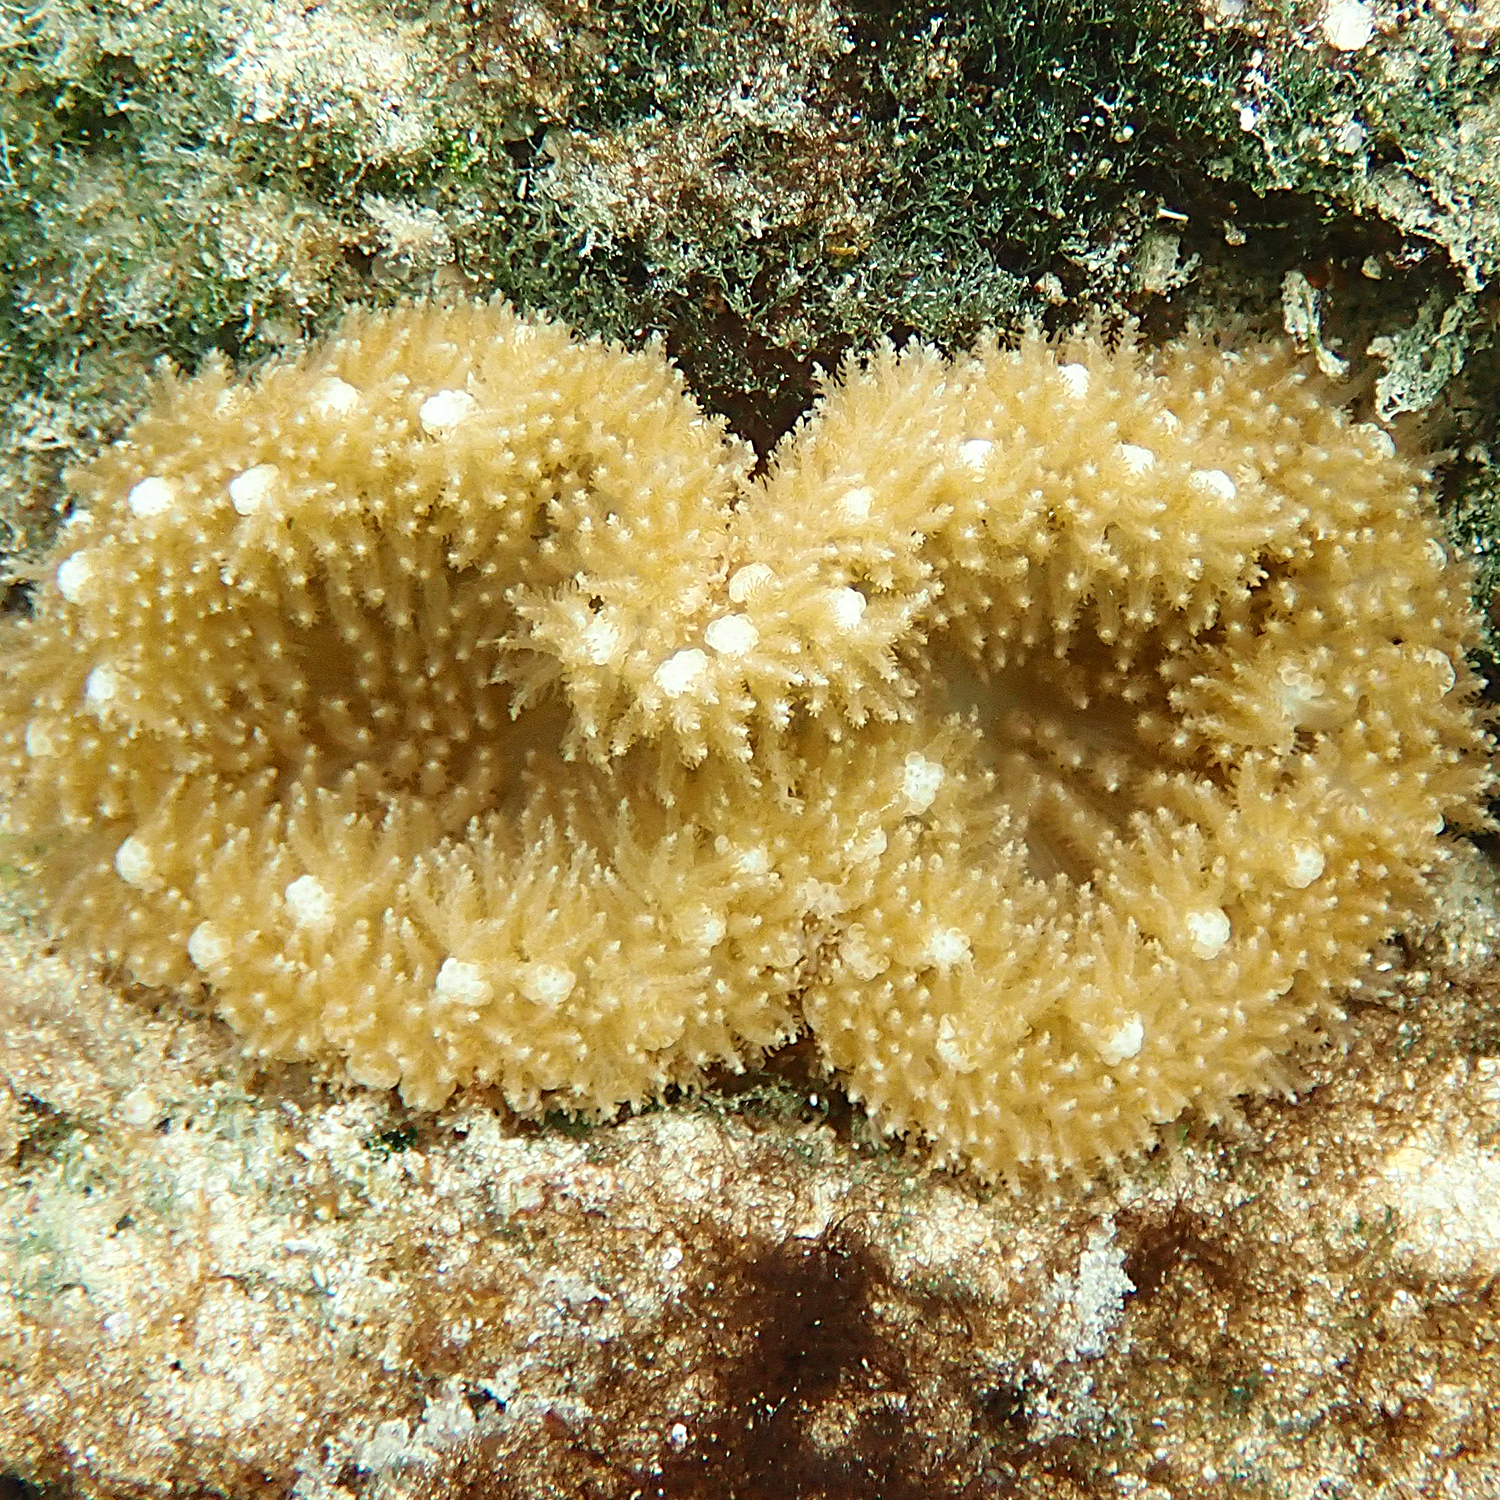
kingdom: Animalia
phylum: Cnidaria
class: Anthozoa
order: Actiniaria
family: Thalassianthidae
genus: Heterodactyla
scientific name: Heterodactyla hemprichii
